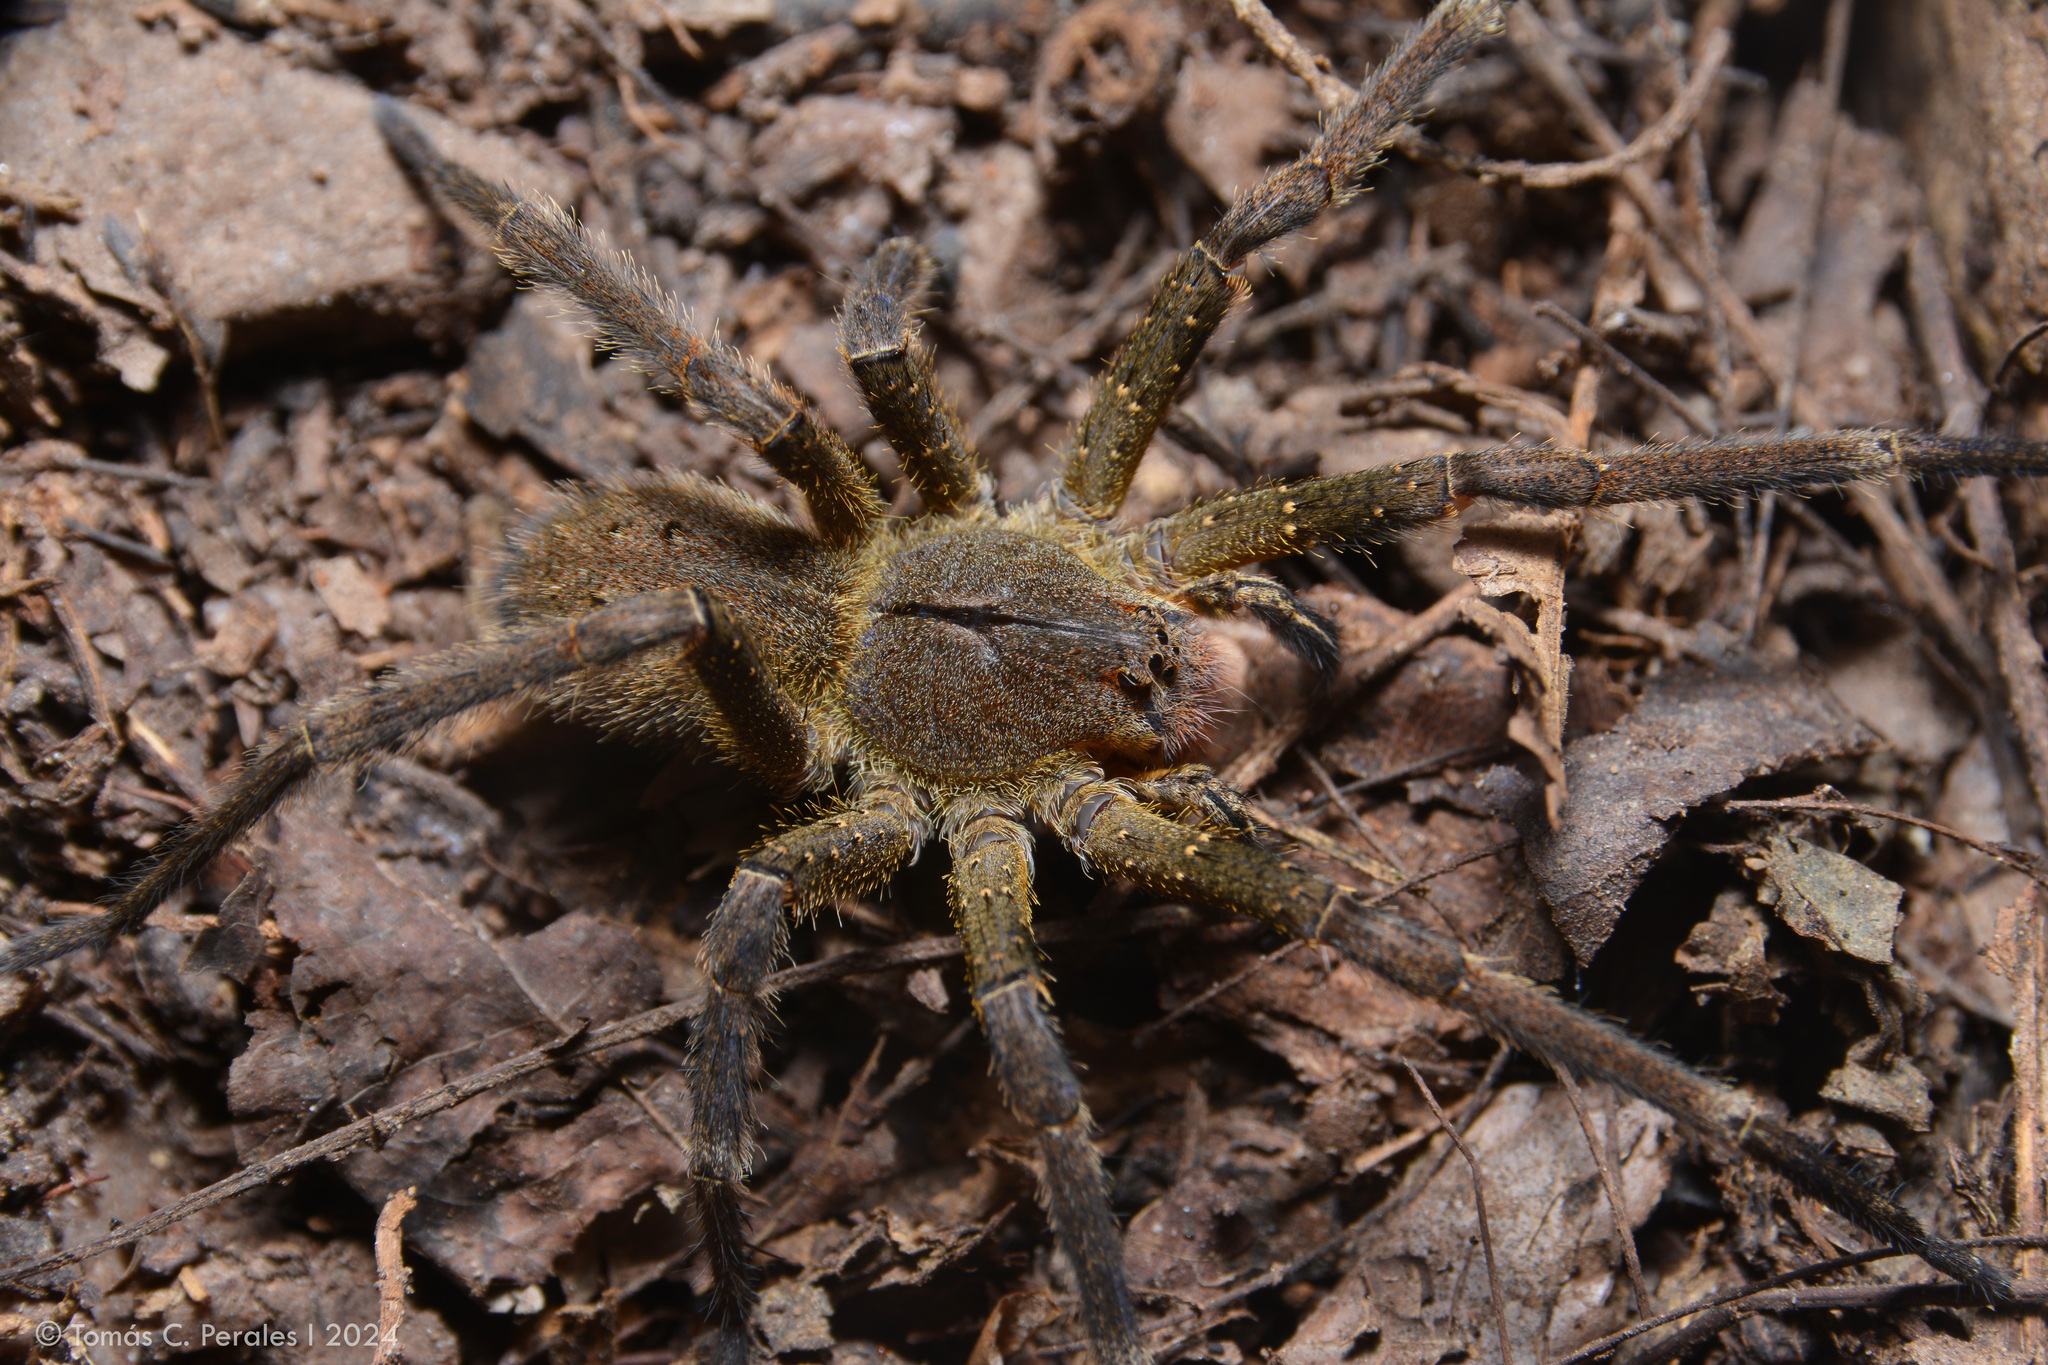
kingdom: Animalia
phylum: Arthropoda
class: Arachnida
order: Araneae
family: Ctenidae
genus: Phoneutria
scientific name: Phoneutria nigriventer
